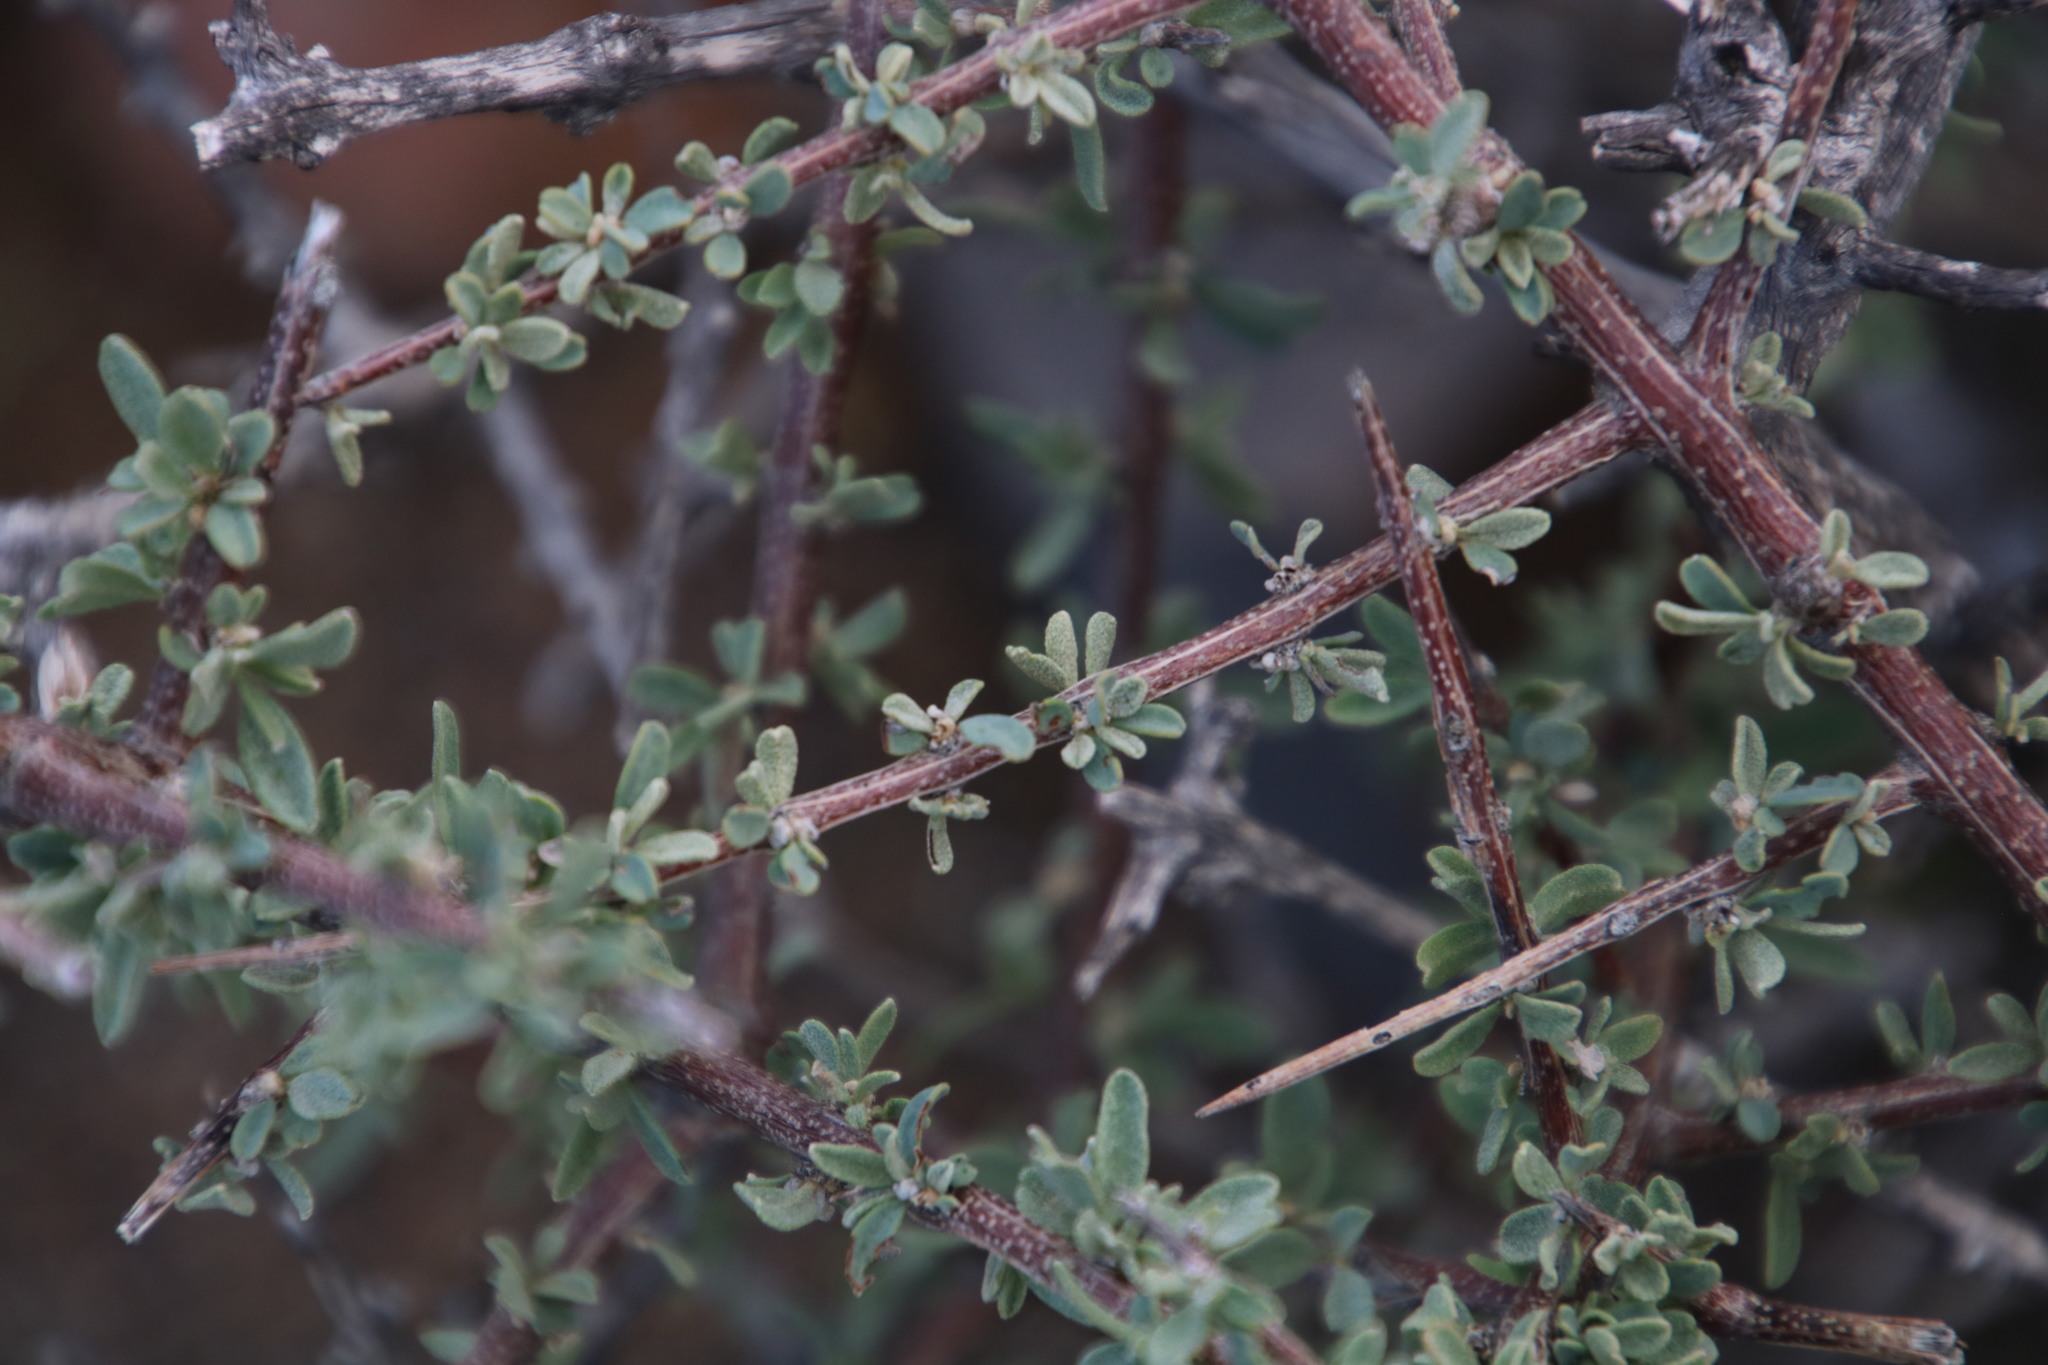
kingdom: Plantae
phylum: Tracheophyta
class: Magnoliopsida
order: Lamiales
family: Bignoniaceae
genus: Rhigozum
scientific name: Rhigozum obovatum
